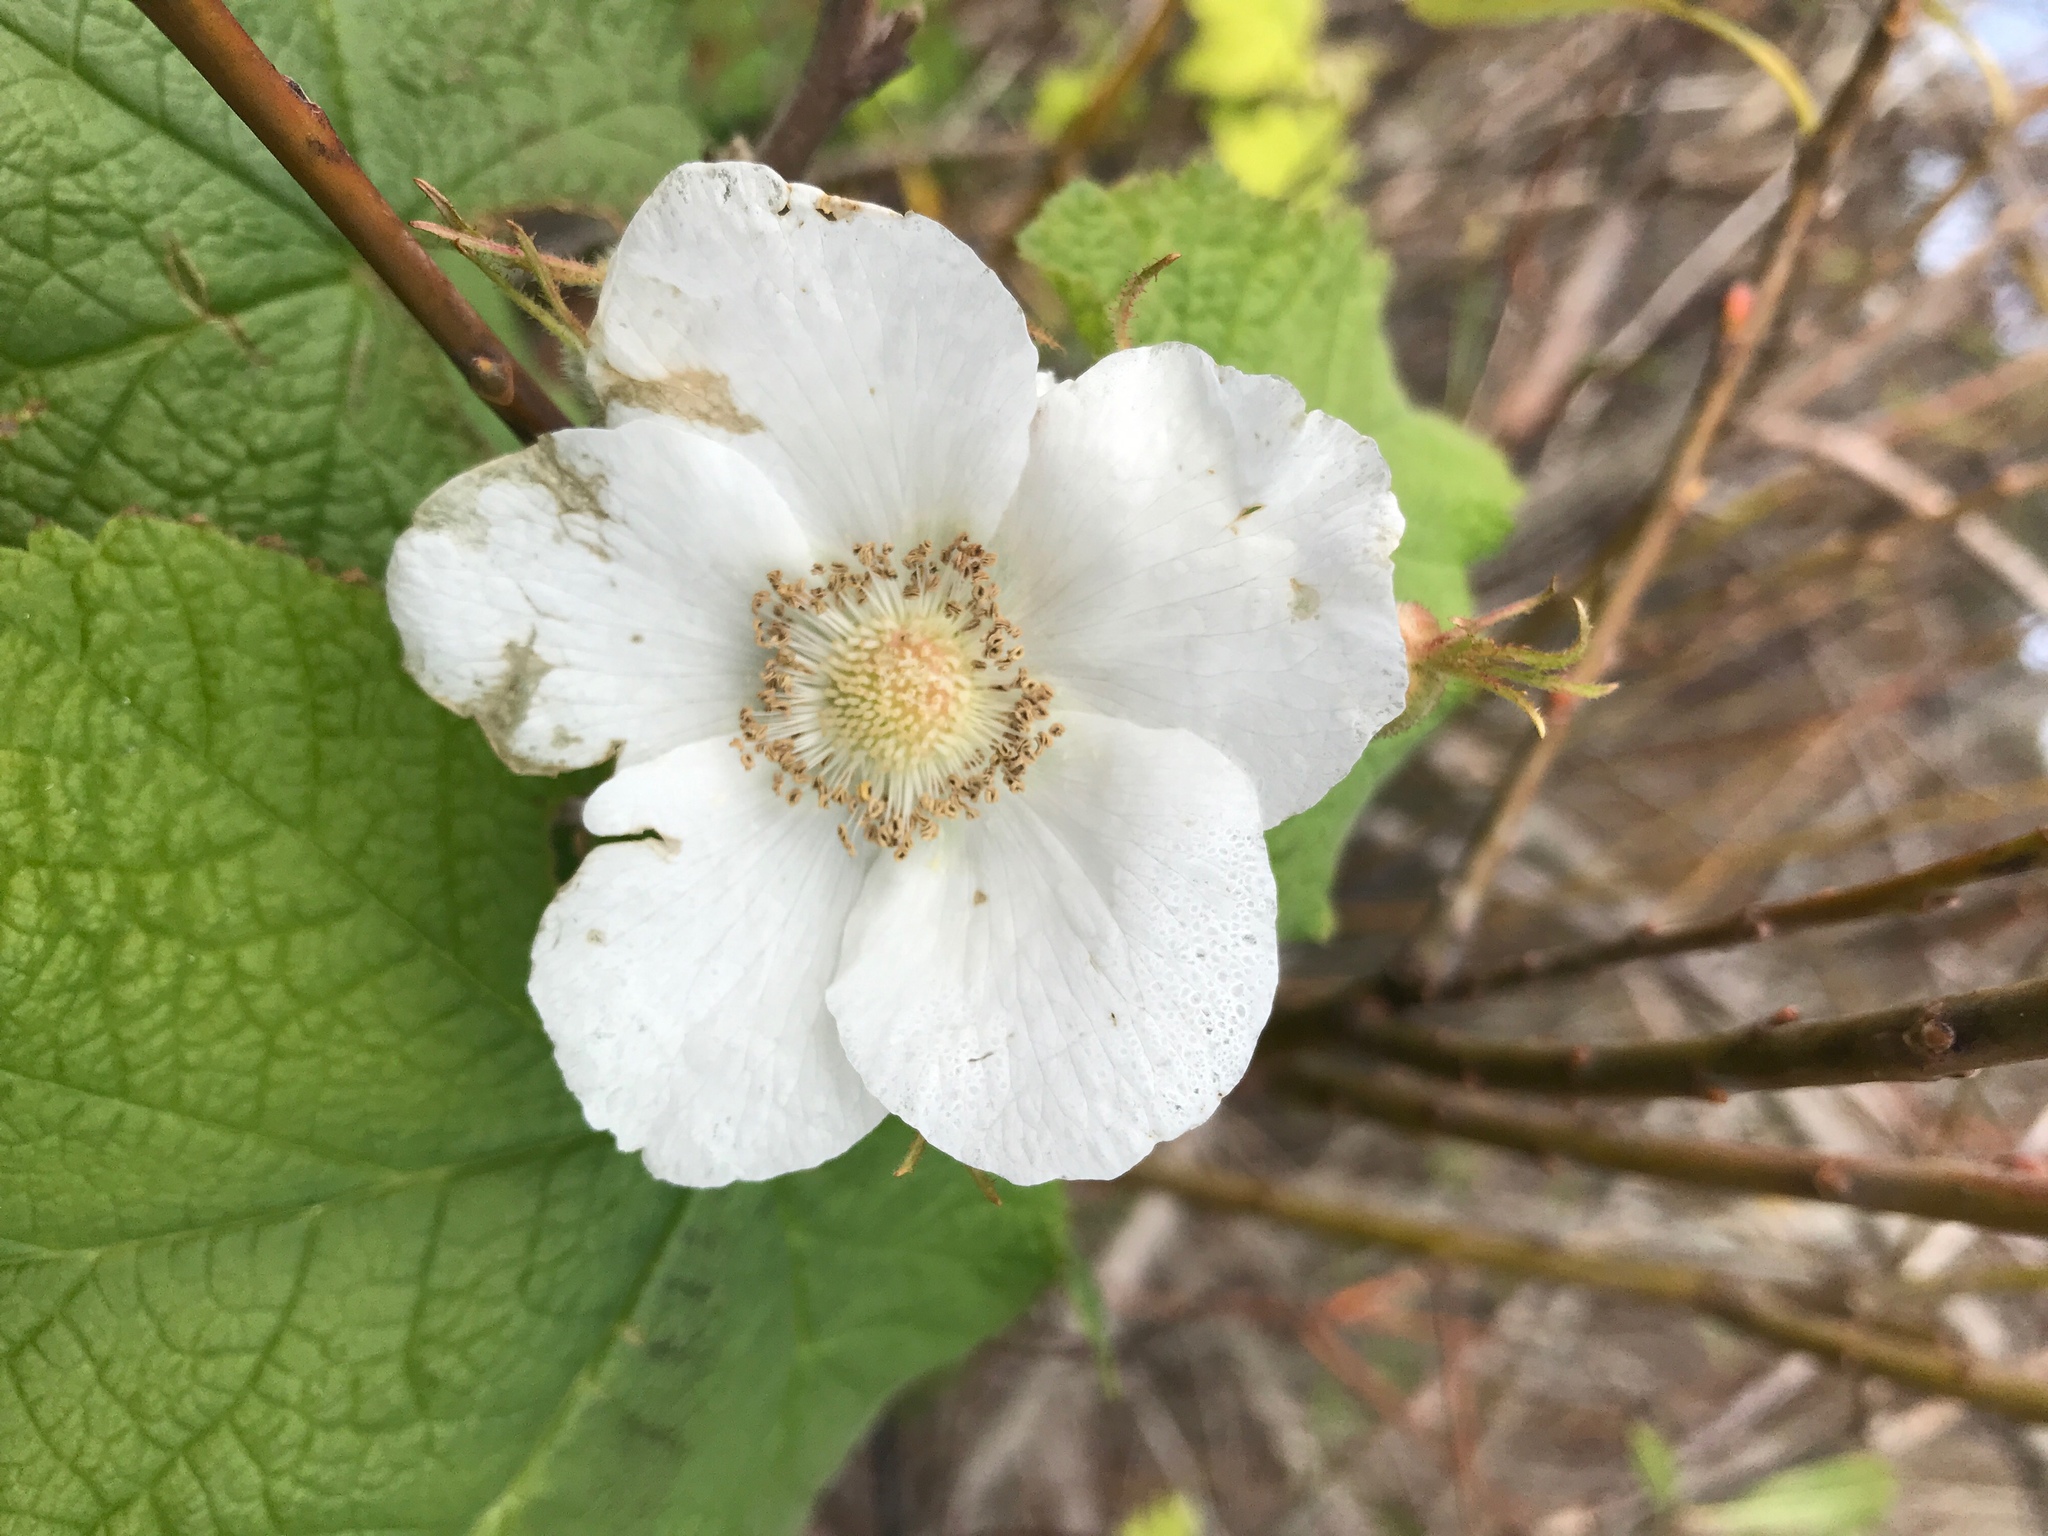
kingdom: Plantae
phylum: Tracheophyta
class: Magnoliopsida
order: Rosales
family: Rosaceae
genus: Rubus
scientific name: Rubus parviflorus
